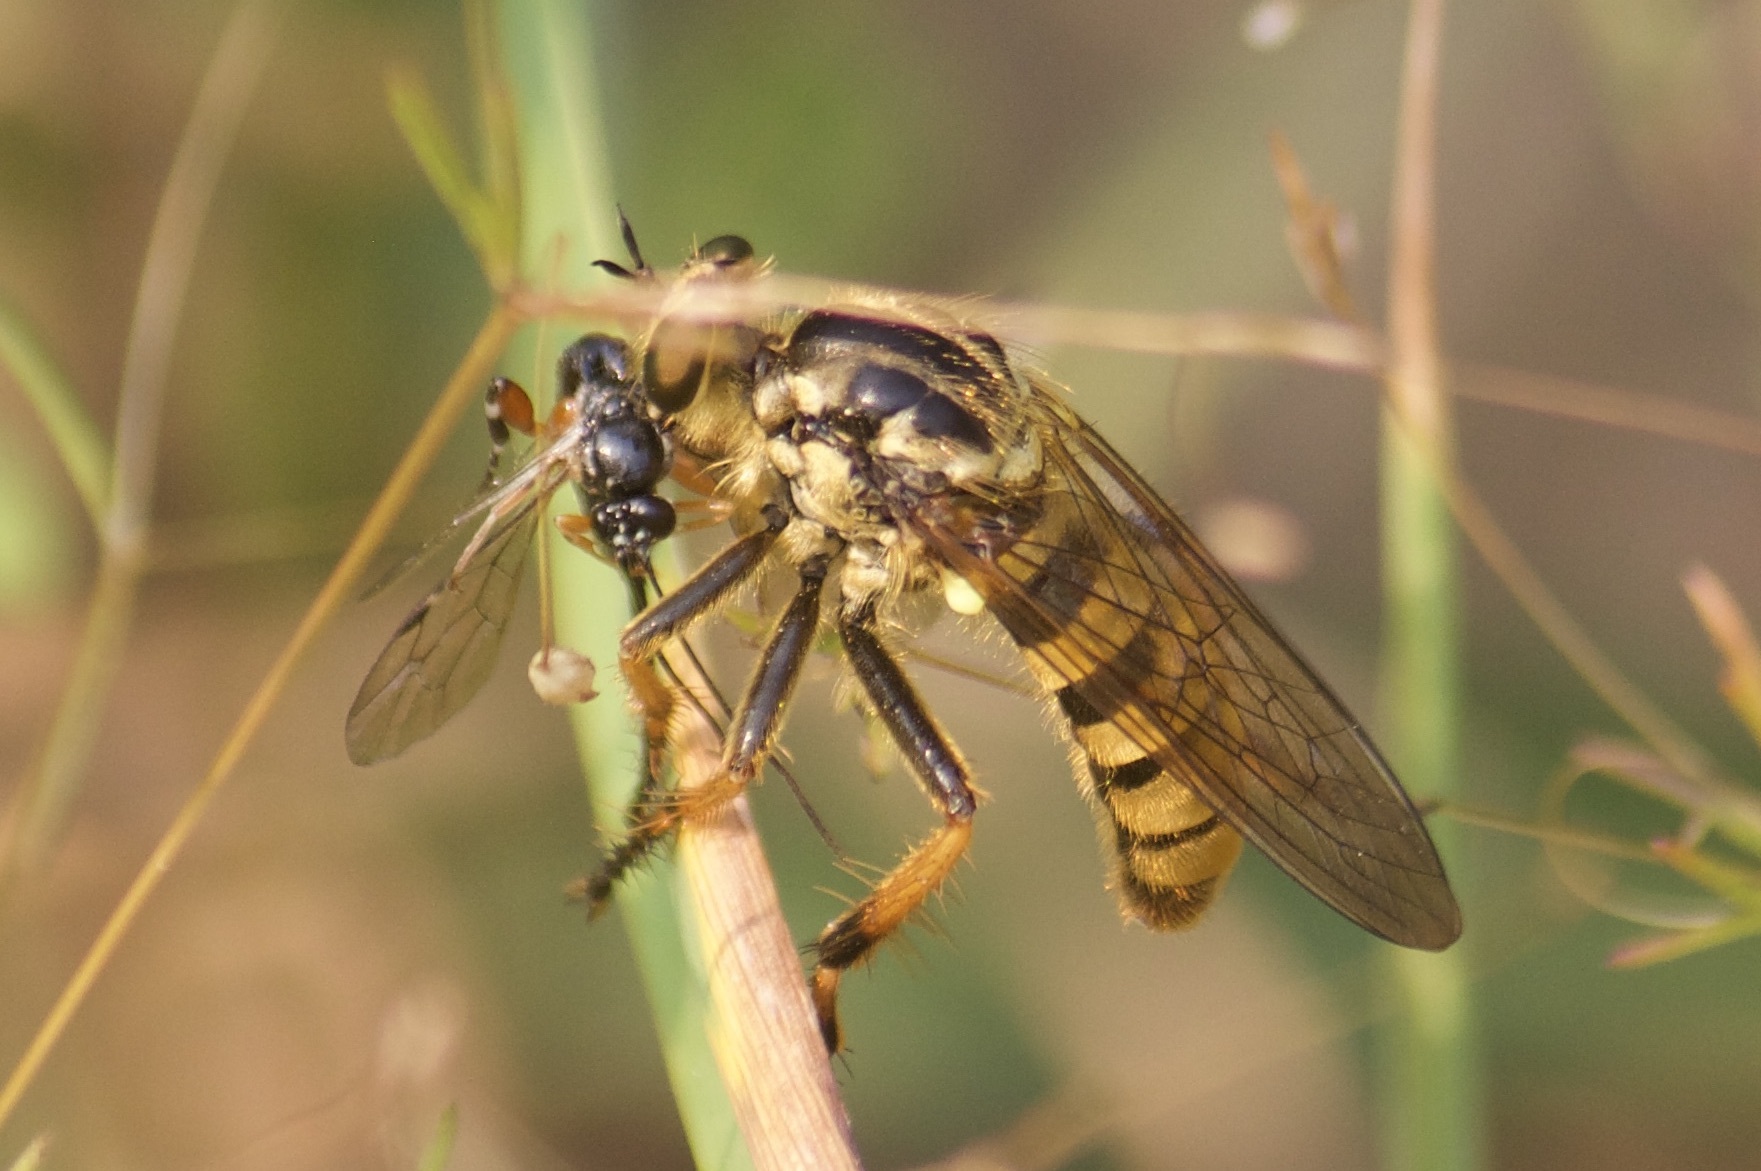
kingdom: Animalia
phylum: Arthropoda
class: Insecta
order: Diptera
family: Asilidae
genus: Callinicus
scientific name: Callinicus pollenius
